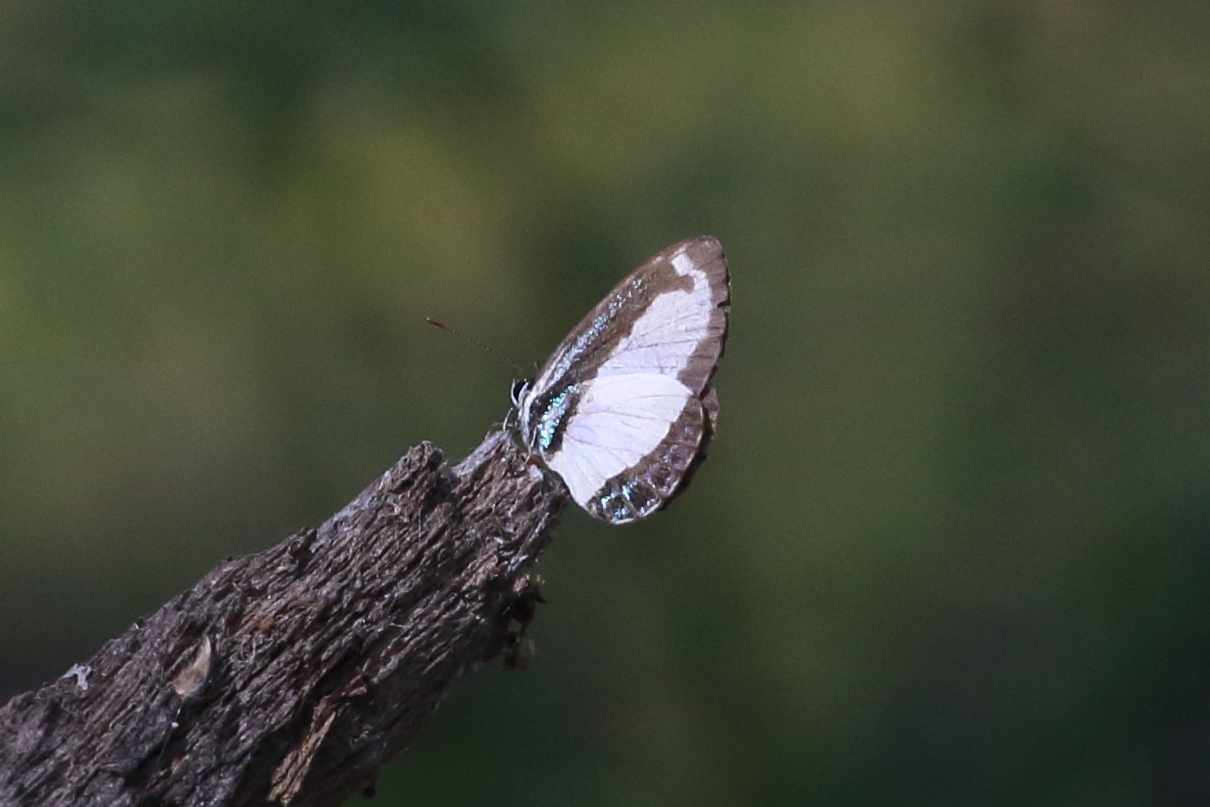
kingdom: Animalia
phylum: Arthropoda
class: Insecta
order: Lepidoptera
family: Lycaenidae
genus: Psychonotis
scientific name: Psychonotis caelius
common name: Small green banded blue
